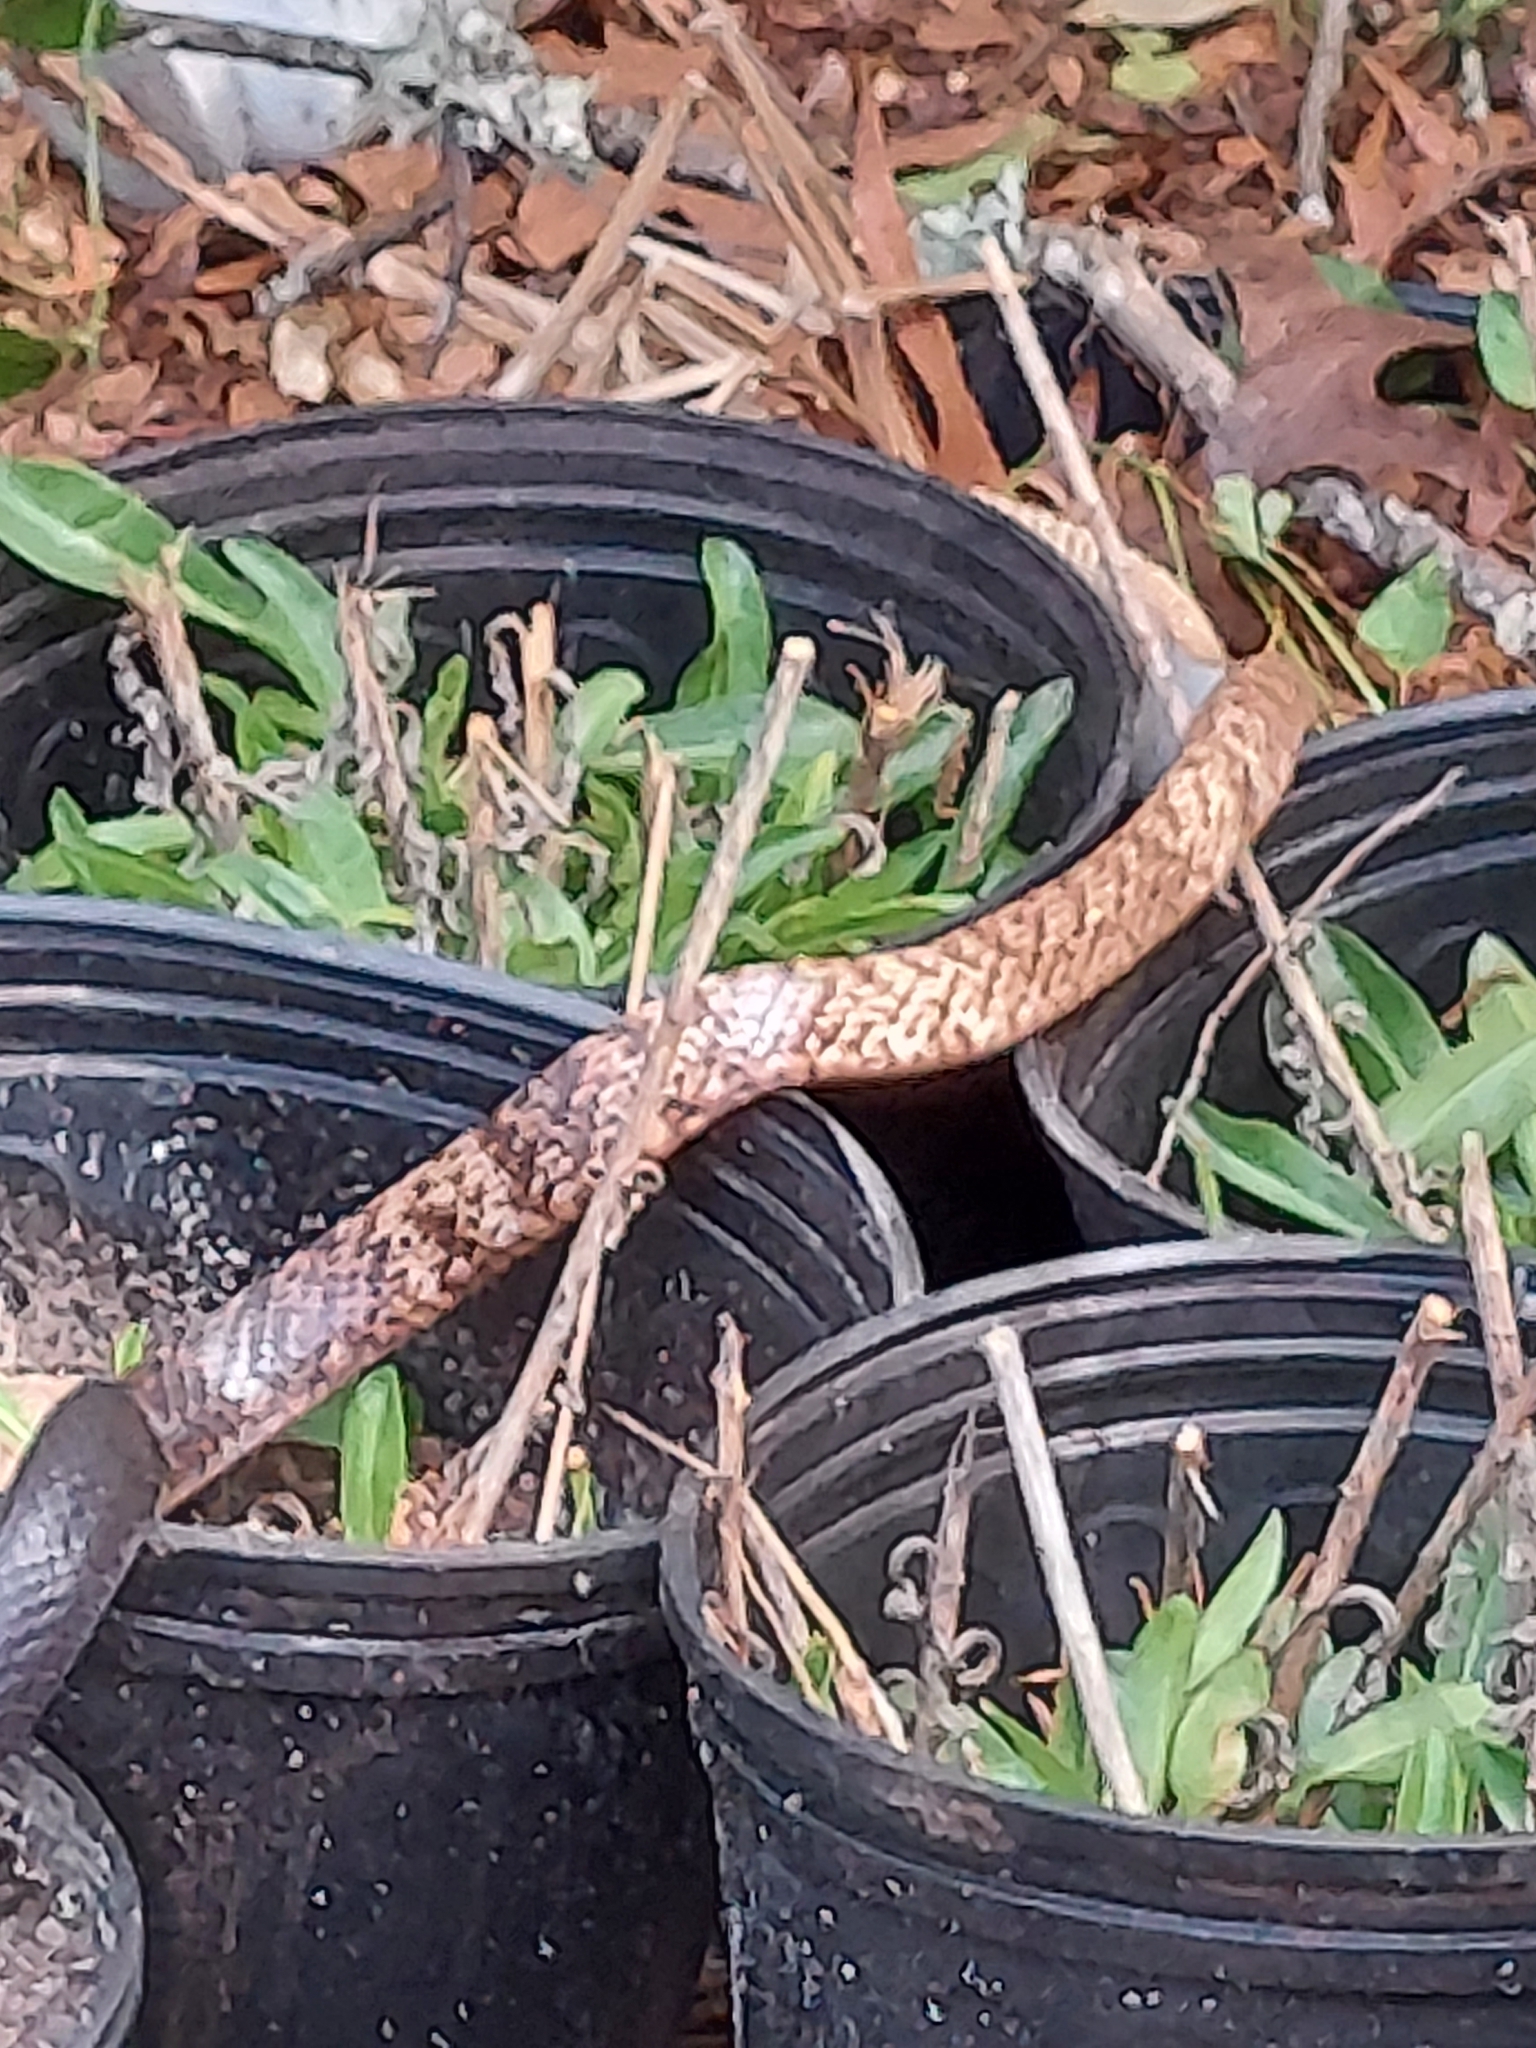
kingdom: Animalia
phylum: Chordata
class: Squamata
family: Colubridae
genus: Masticophis
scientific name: Masticophis flagellum
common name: Coachwhip
